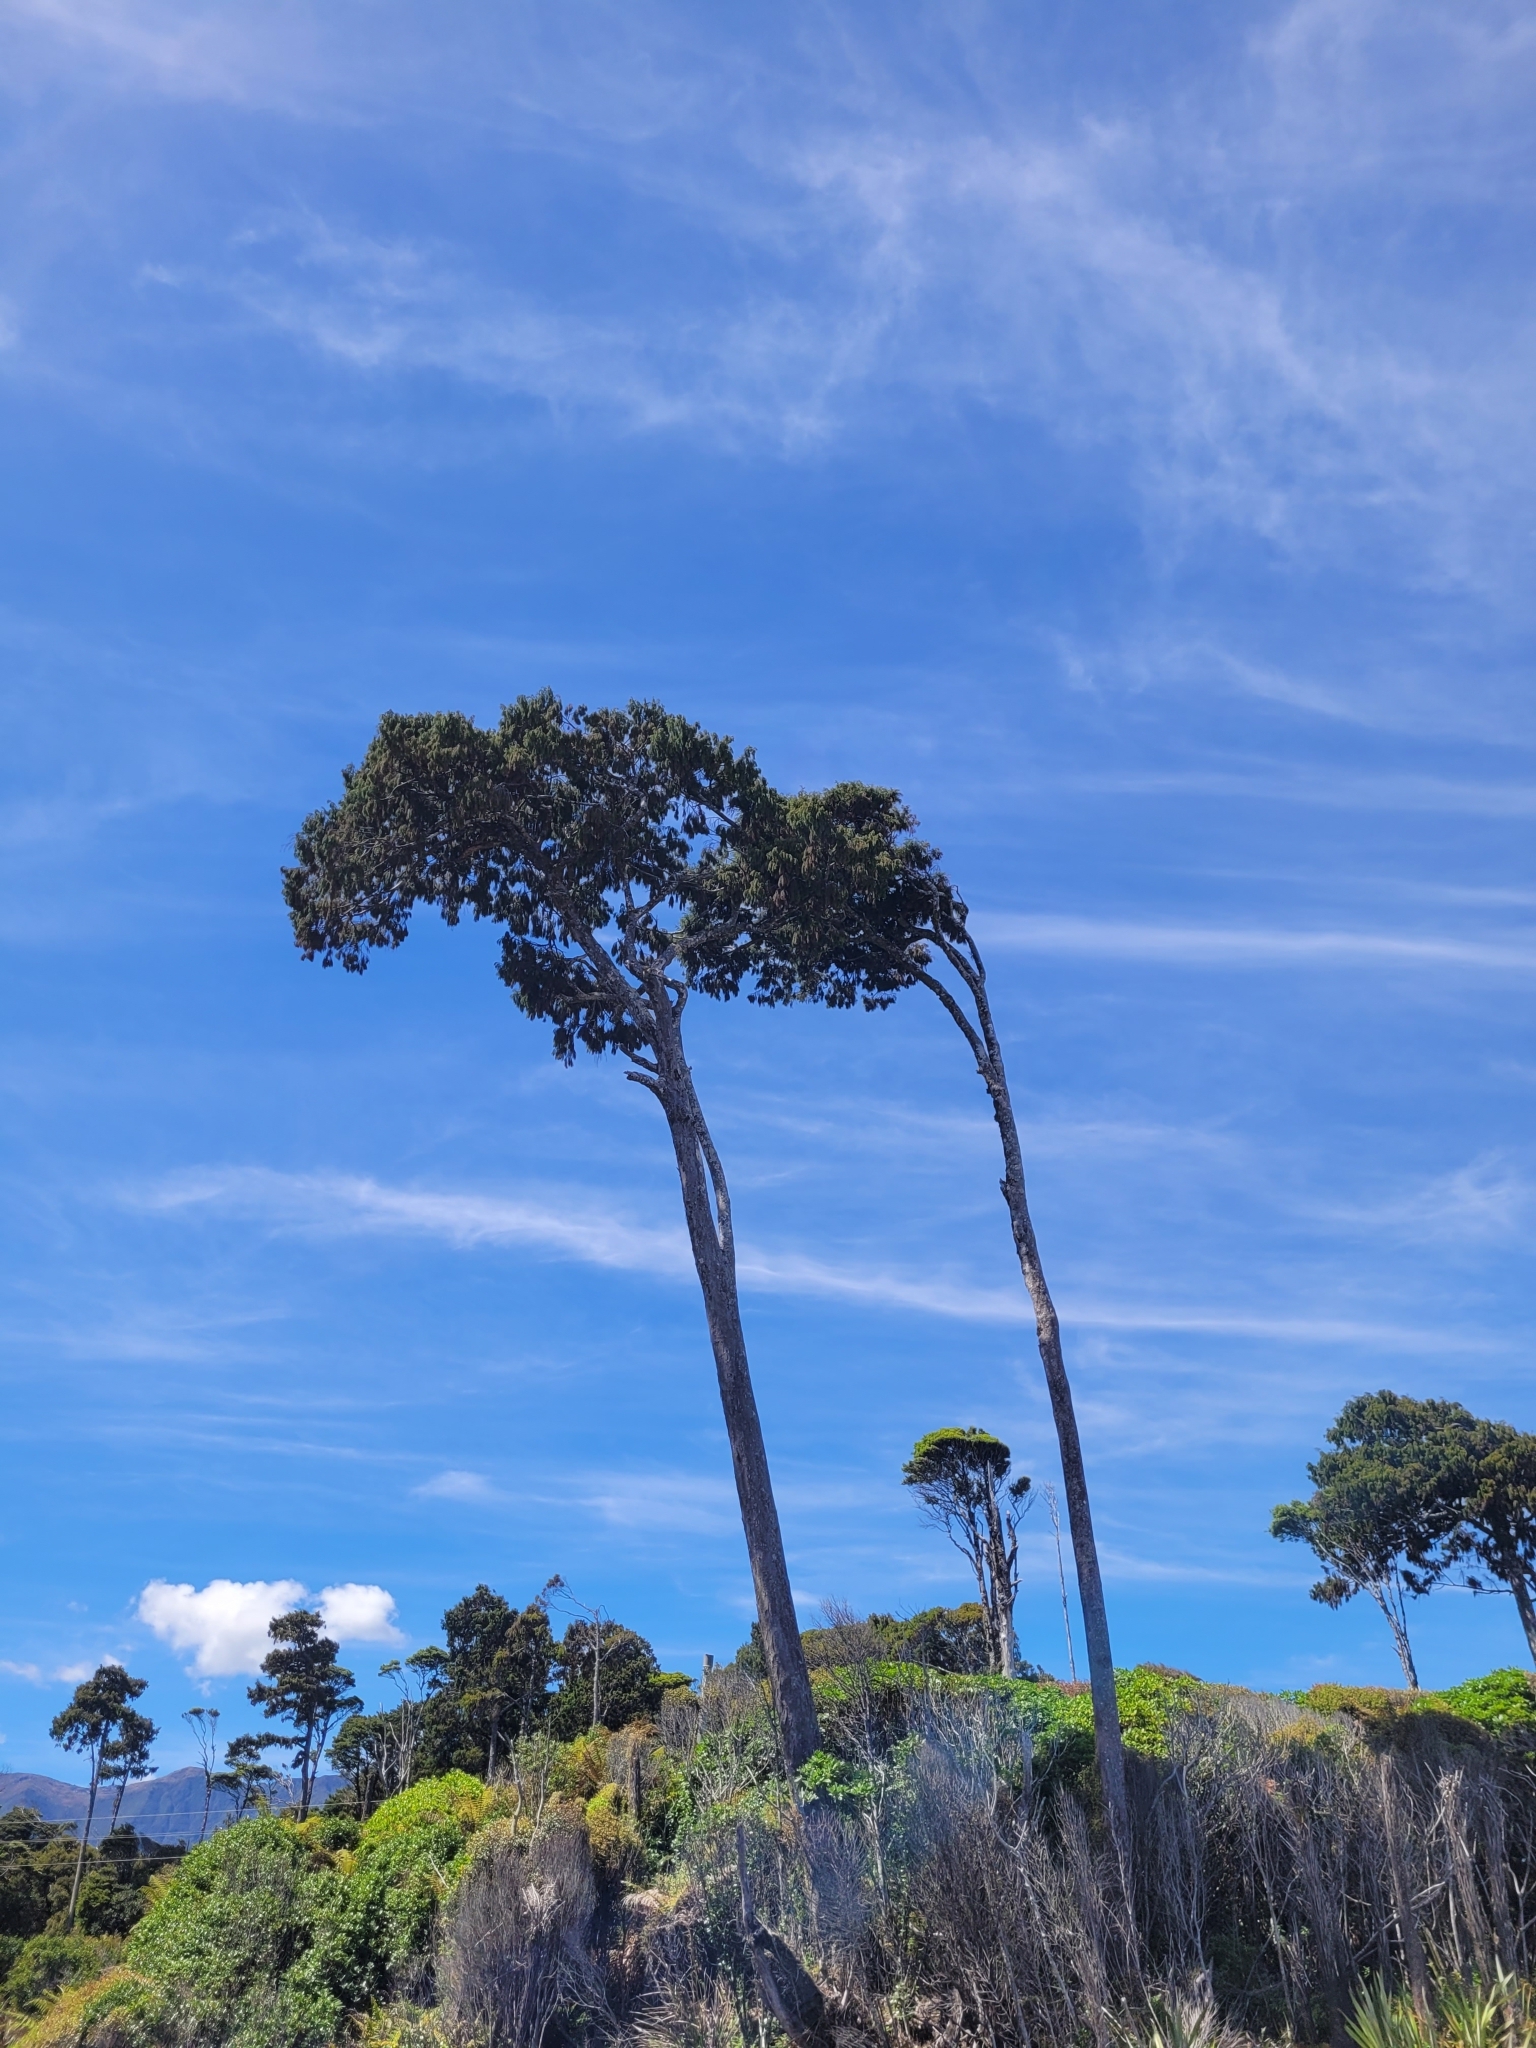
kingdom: Plantae
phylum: Tracheophyta
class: Pinopsida
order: Pinales
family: Podocarpaceae
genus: Dacrydium
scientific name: Dacrydium cupressinum
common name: Red pine
